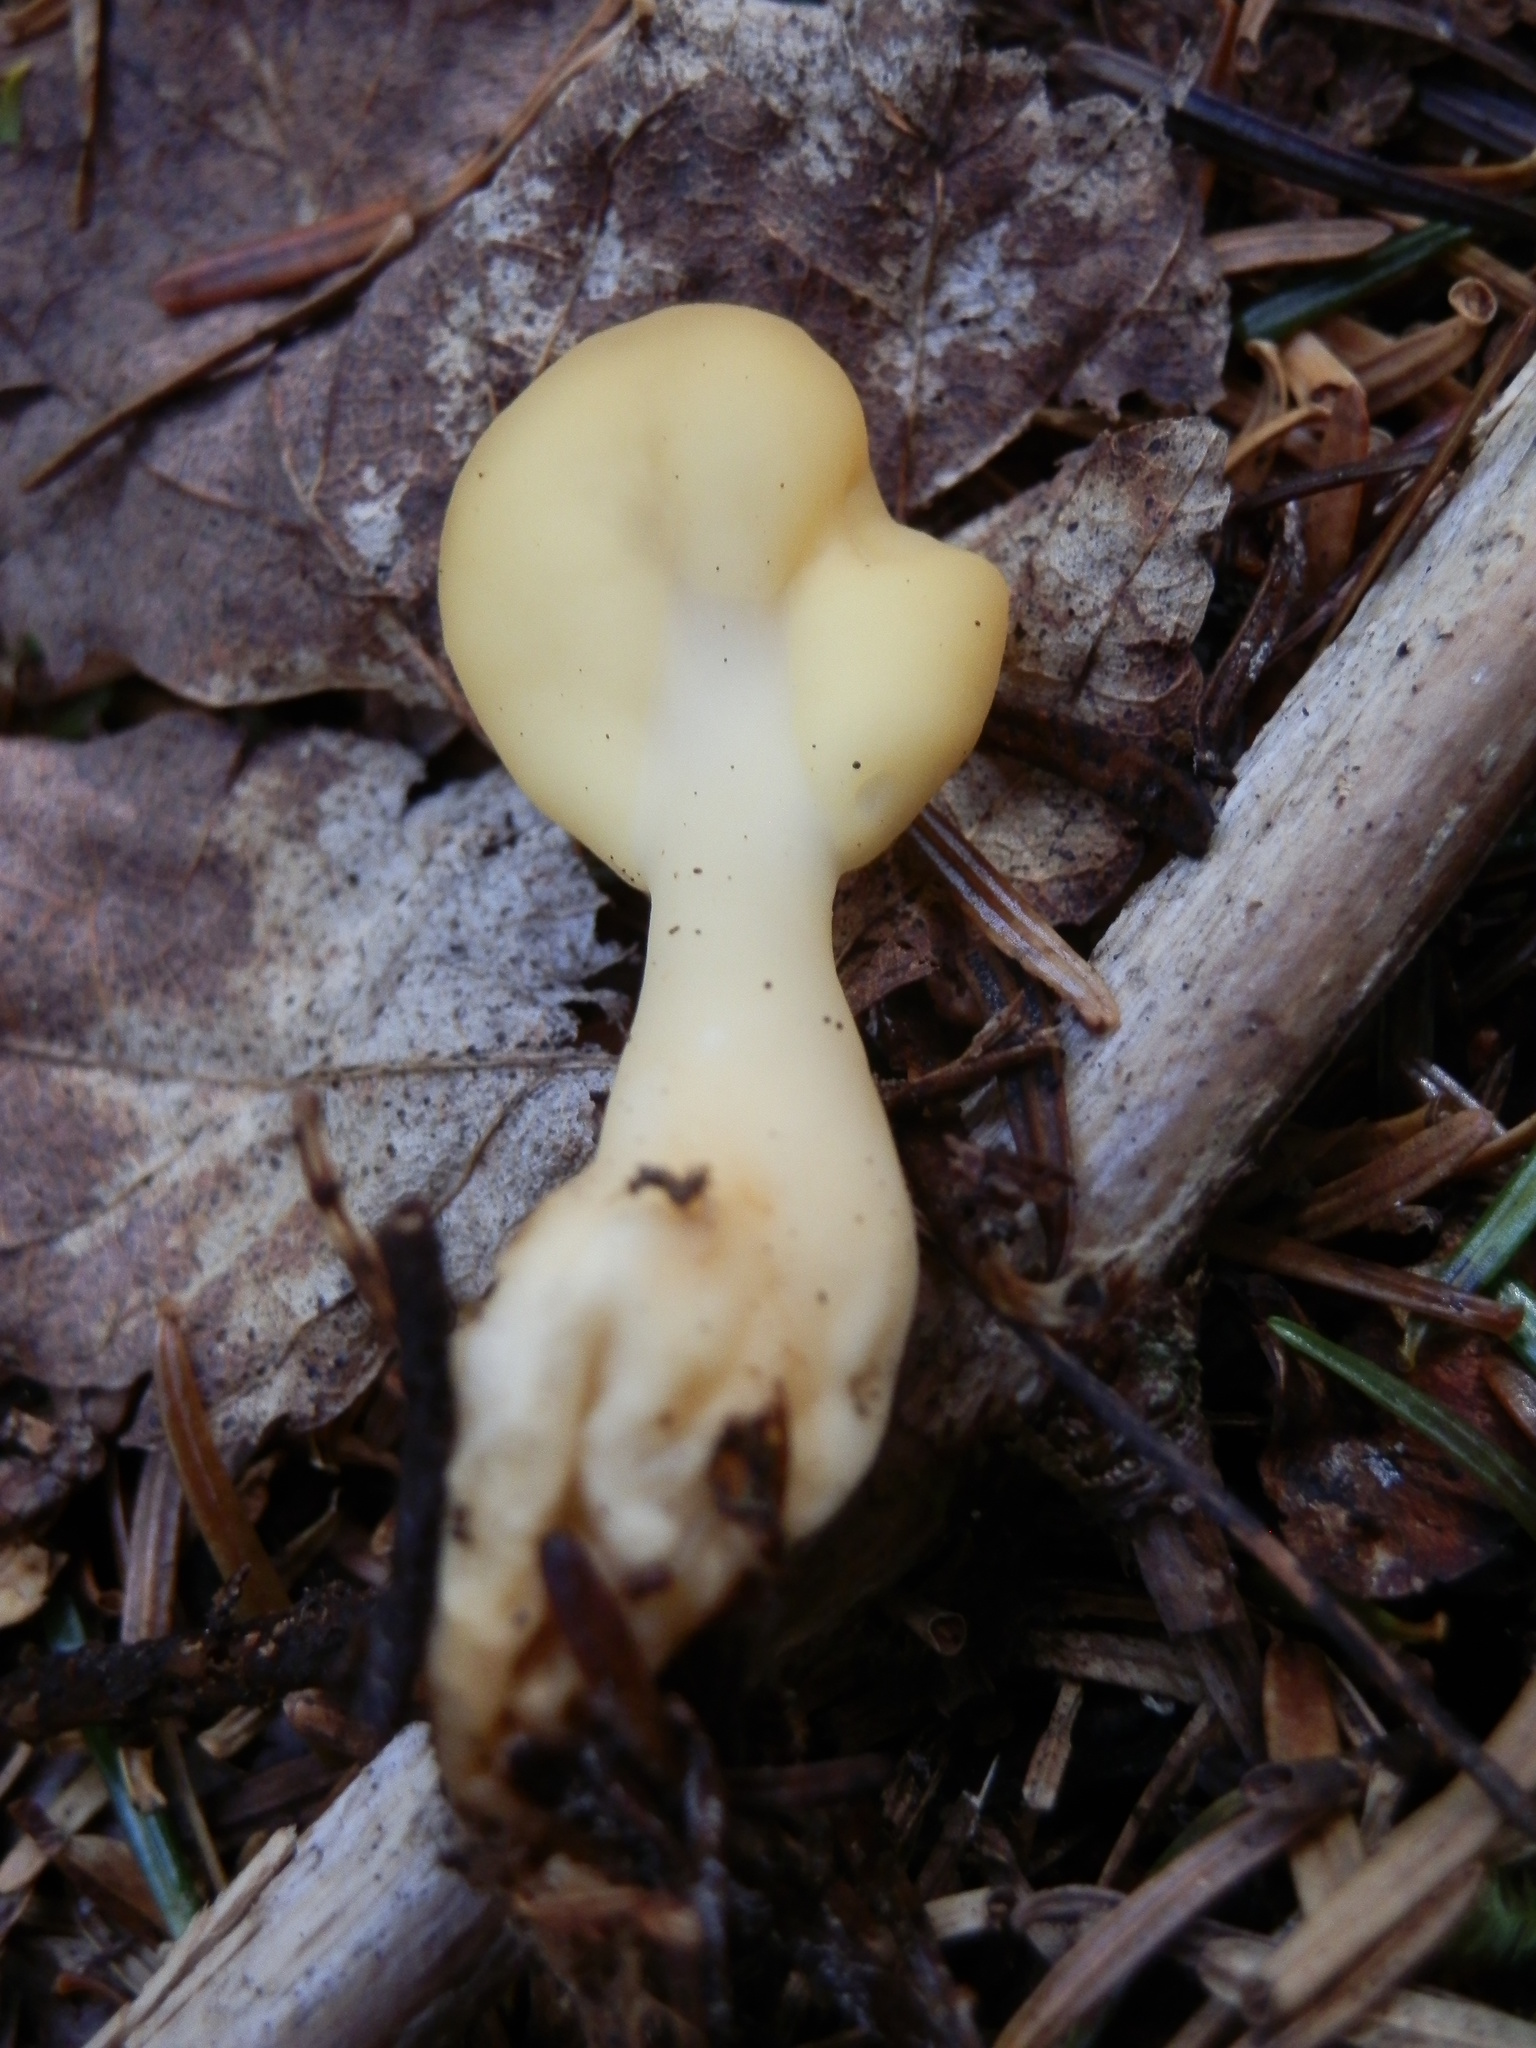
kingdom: Fungi
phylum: Ascomycota
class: Leotiomycetes
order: Rhytismatales
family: Cudoniaceae
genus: Spathularia
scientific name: Spathularia flavida
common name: Yellow fan
